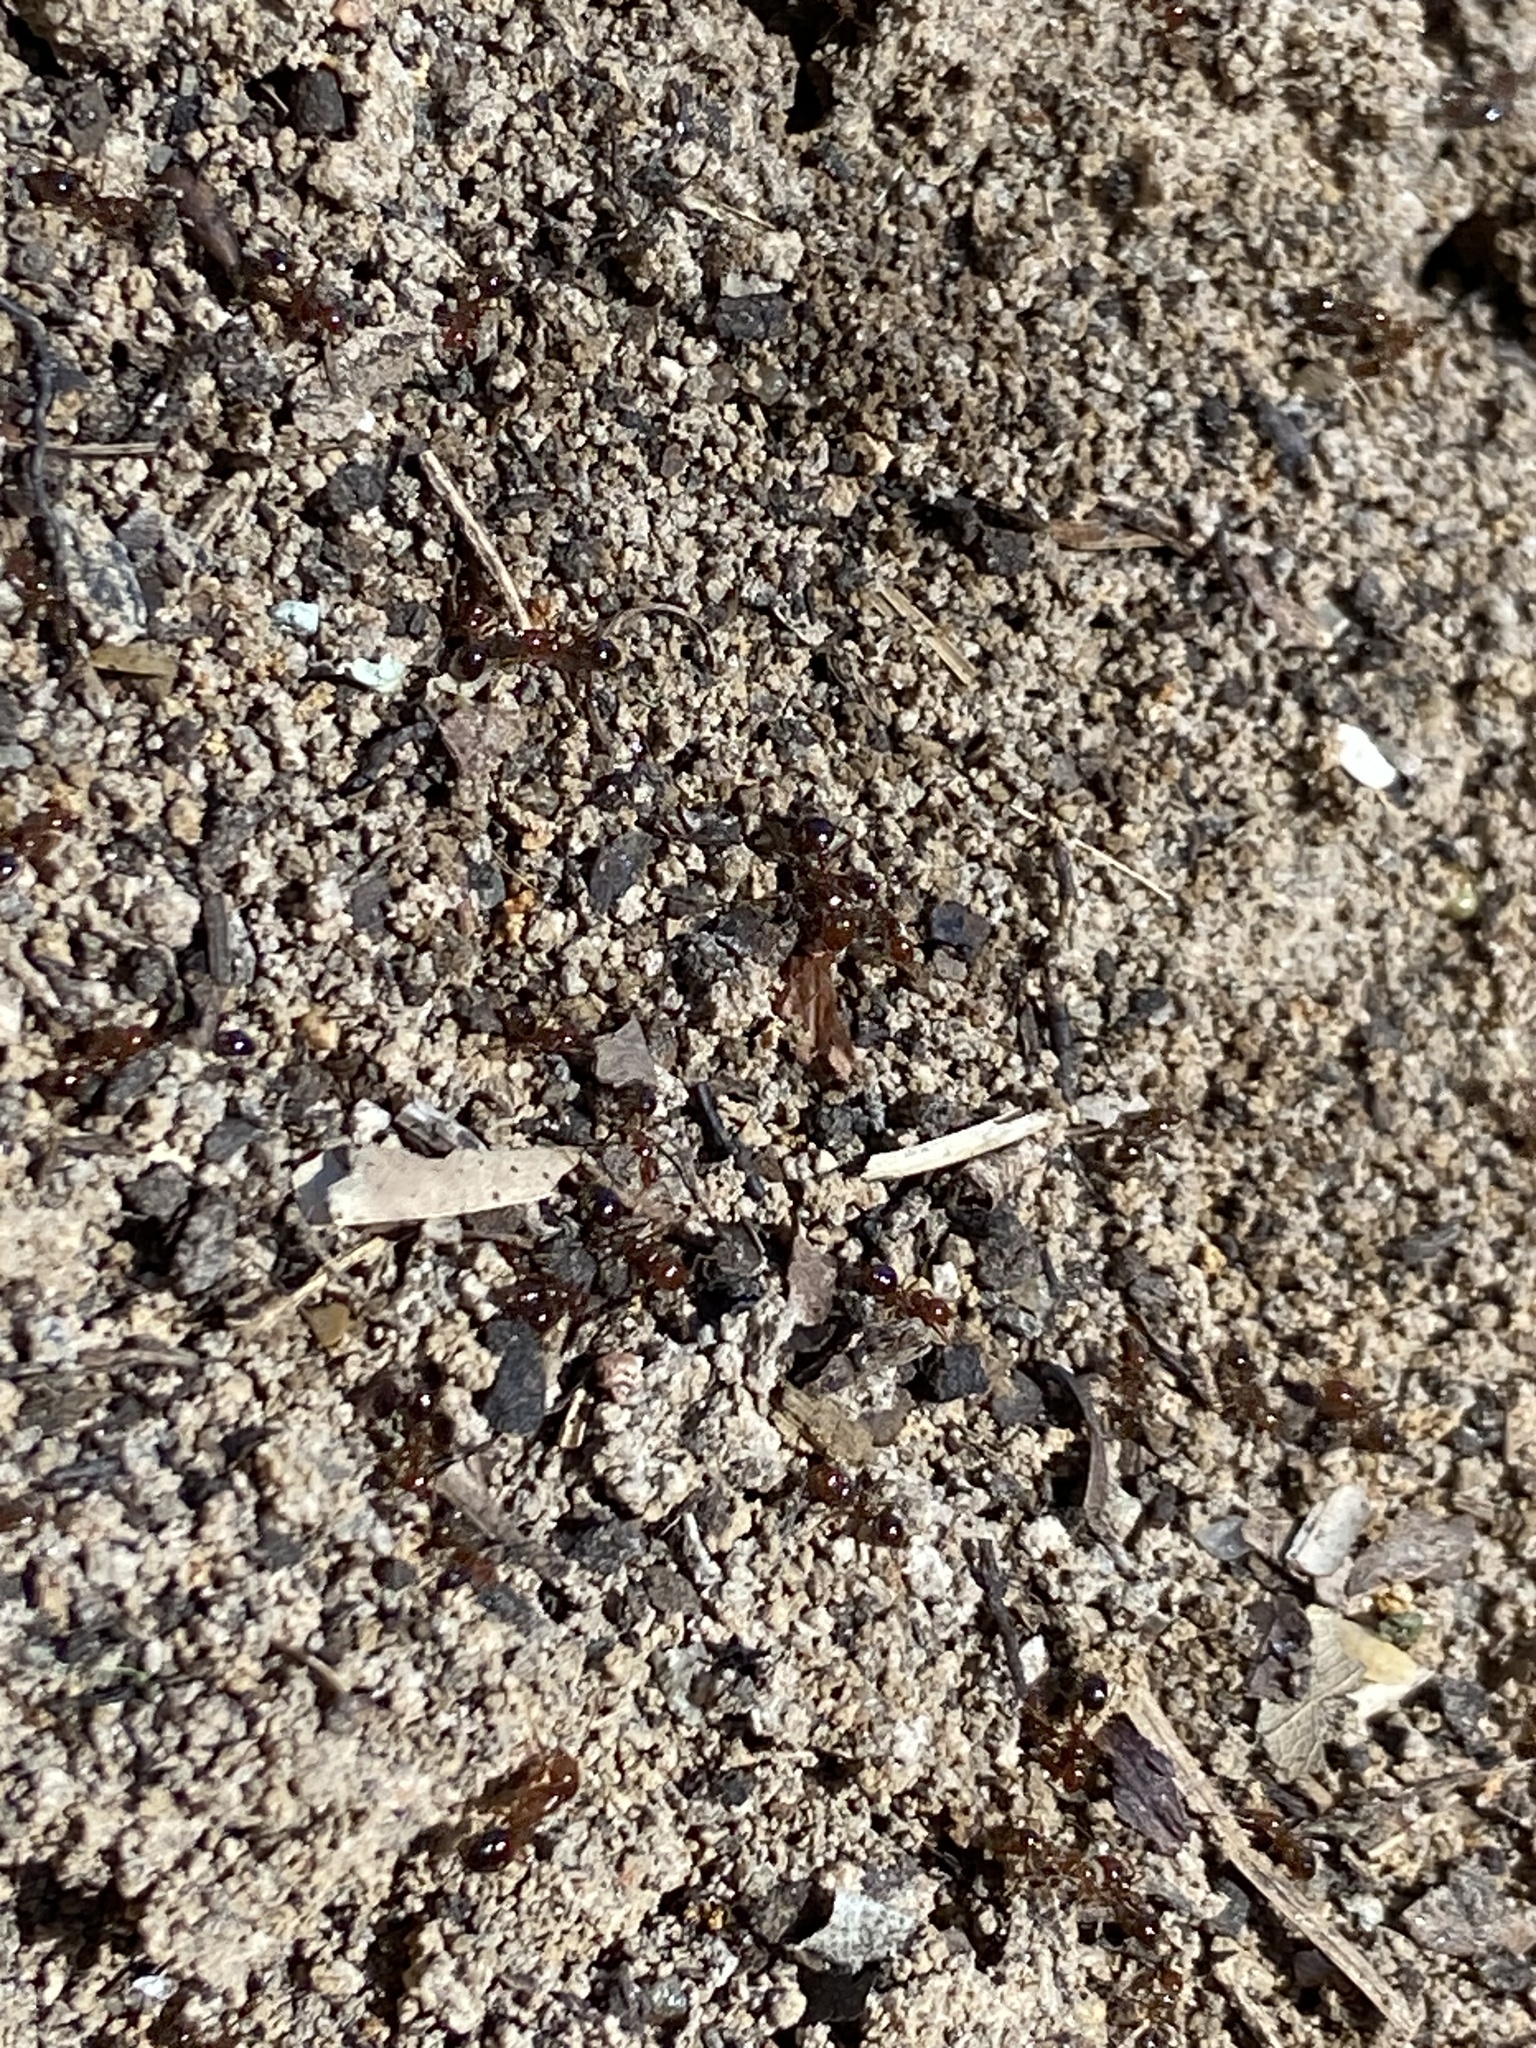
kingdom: Animalia
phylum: Arthropoda
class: Insecta
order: Hymenoptera
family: Formicidae
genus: Solenopsis
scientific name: Solenopsis invicta
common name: Red imported fire ant
